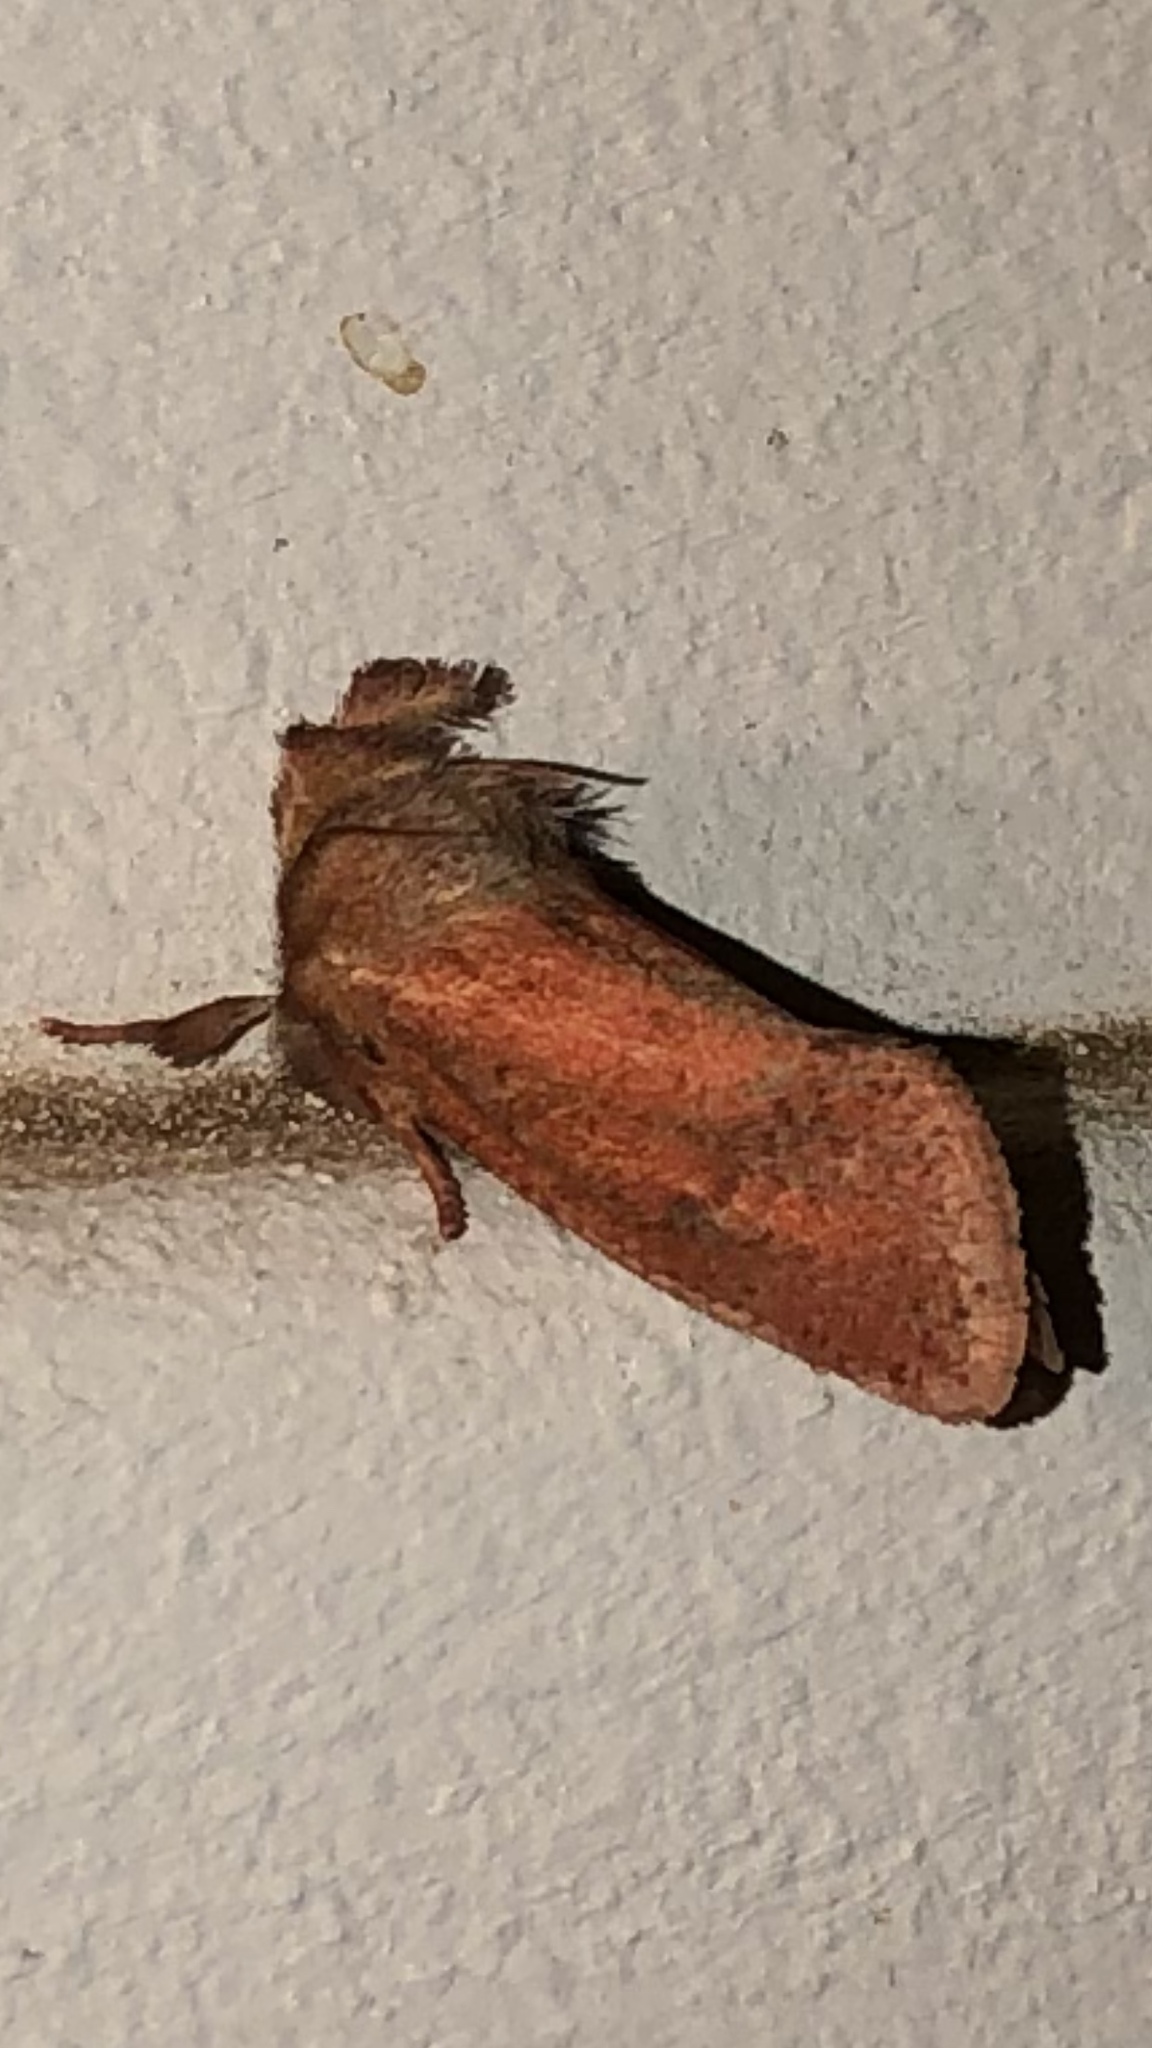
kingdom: Animalia
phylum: Arthropoda
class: Insecta
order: Lepidoptera
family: Tineidae
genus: Acrolophus
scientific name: Acrolophus plumifrontella
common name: Eastern grass tubeworm moth
